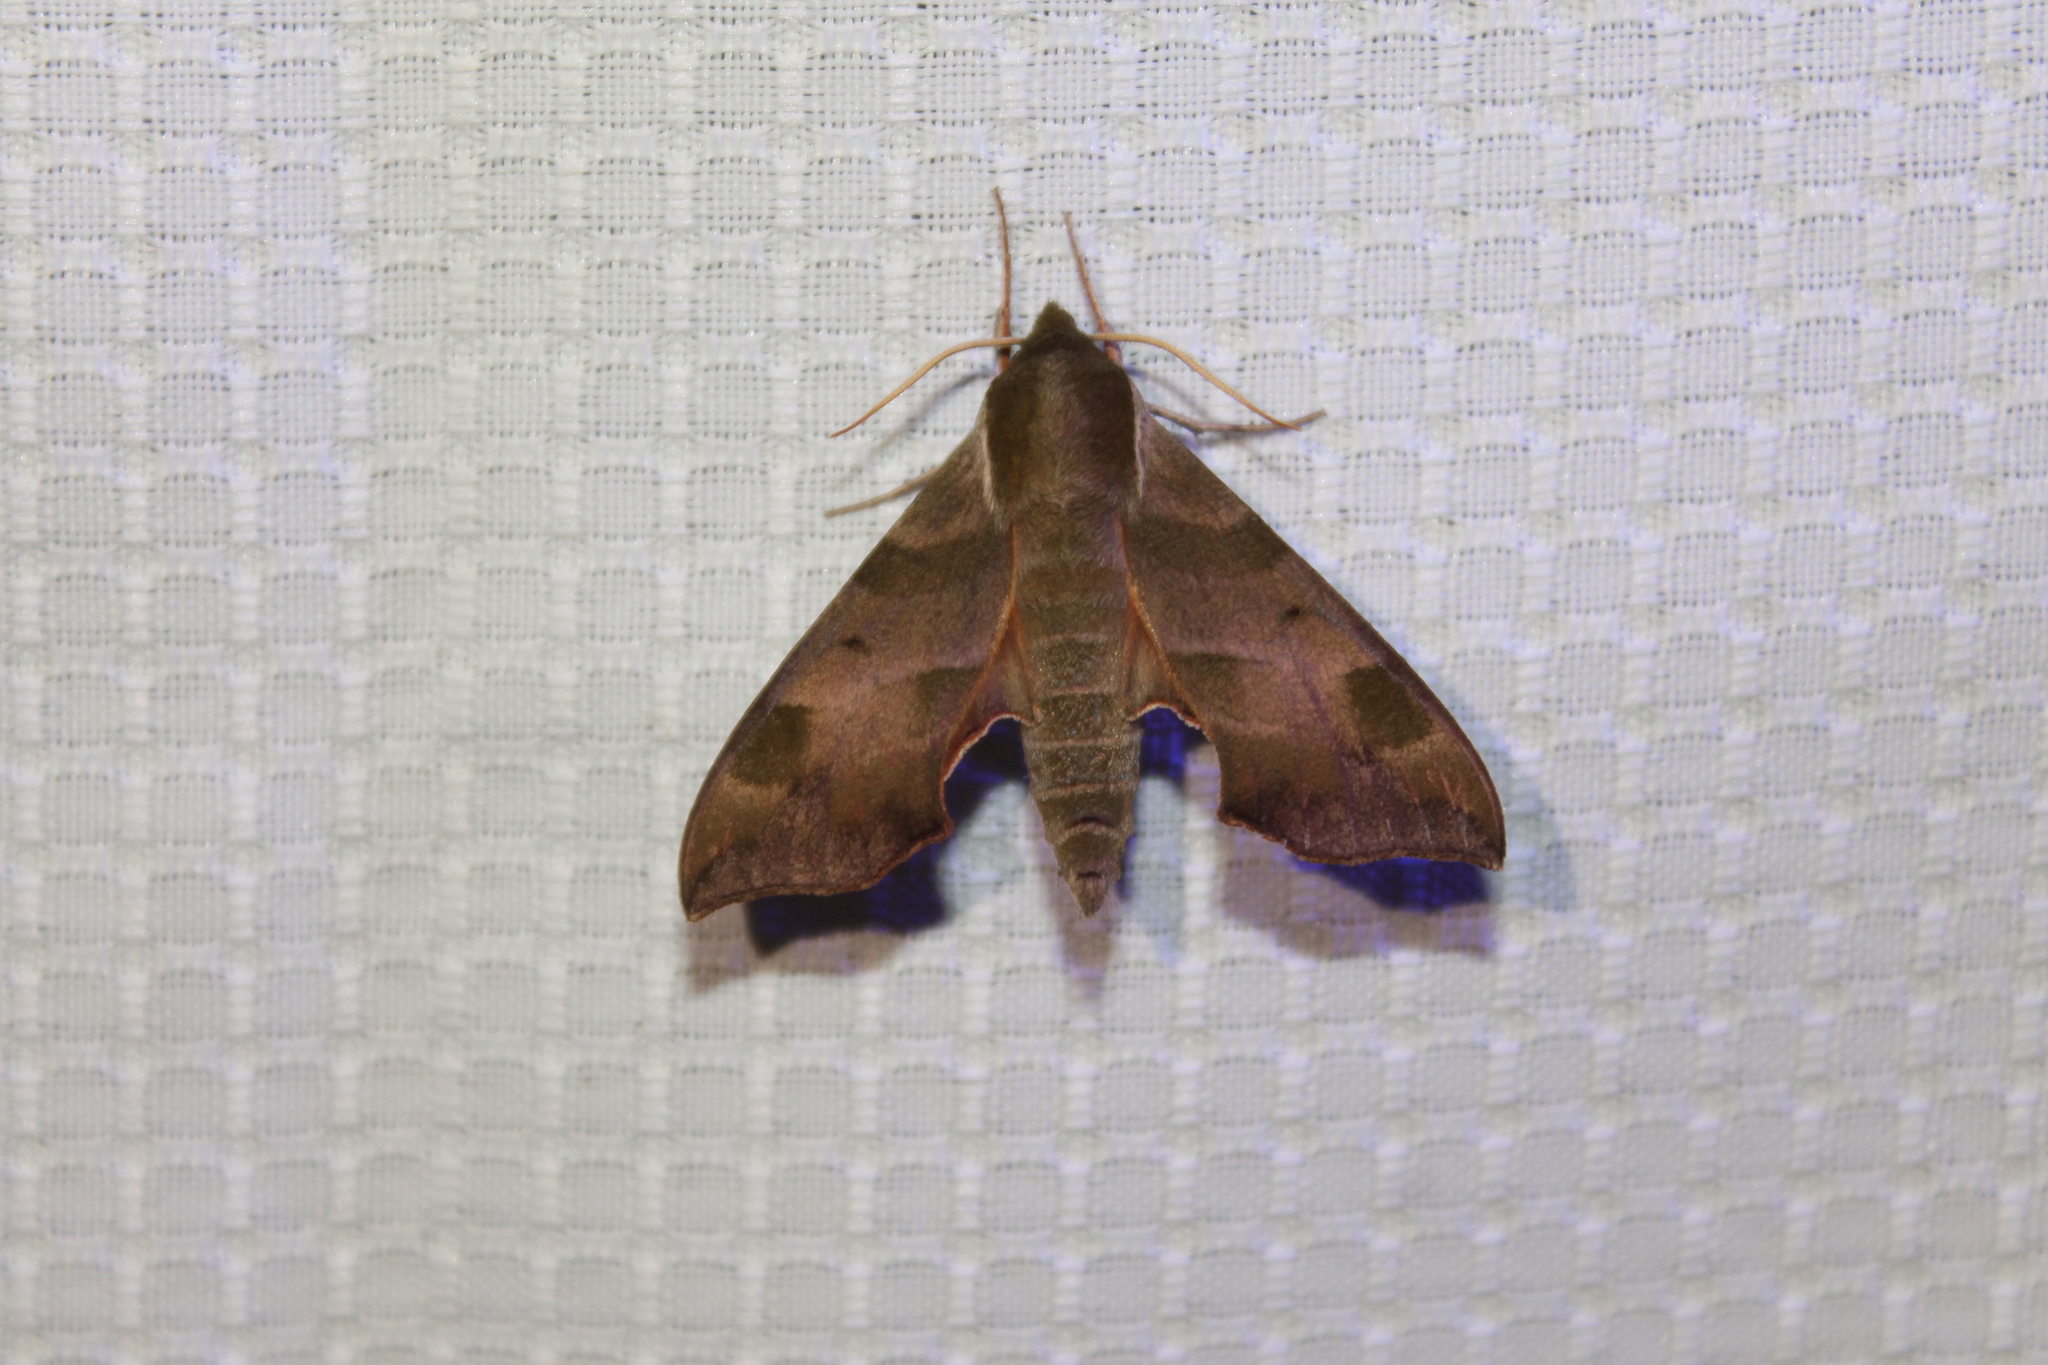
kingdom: Animalia
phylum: Arthropoda
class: Insecta
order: Lepidoptera
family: Sphingidae
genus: Darapsa
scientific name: Darapsa myron
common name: Hog sphinx
